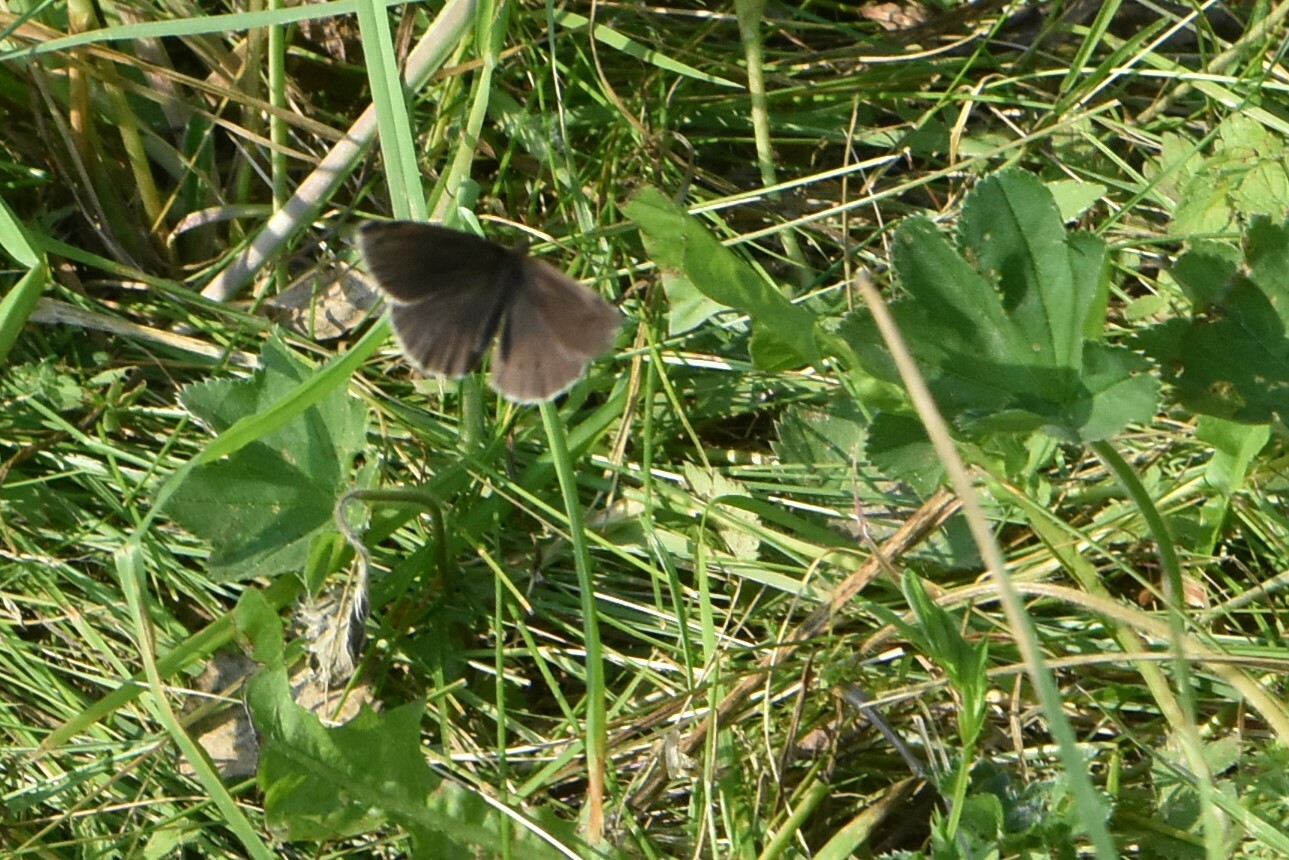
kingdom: Animalia
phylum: Arthropoda
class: Insecta
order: Lepidoptera
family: Nymphalidae
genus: Aphantopus
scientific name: Aphantopus hyperantus
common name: Ringlet
